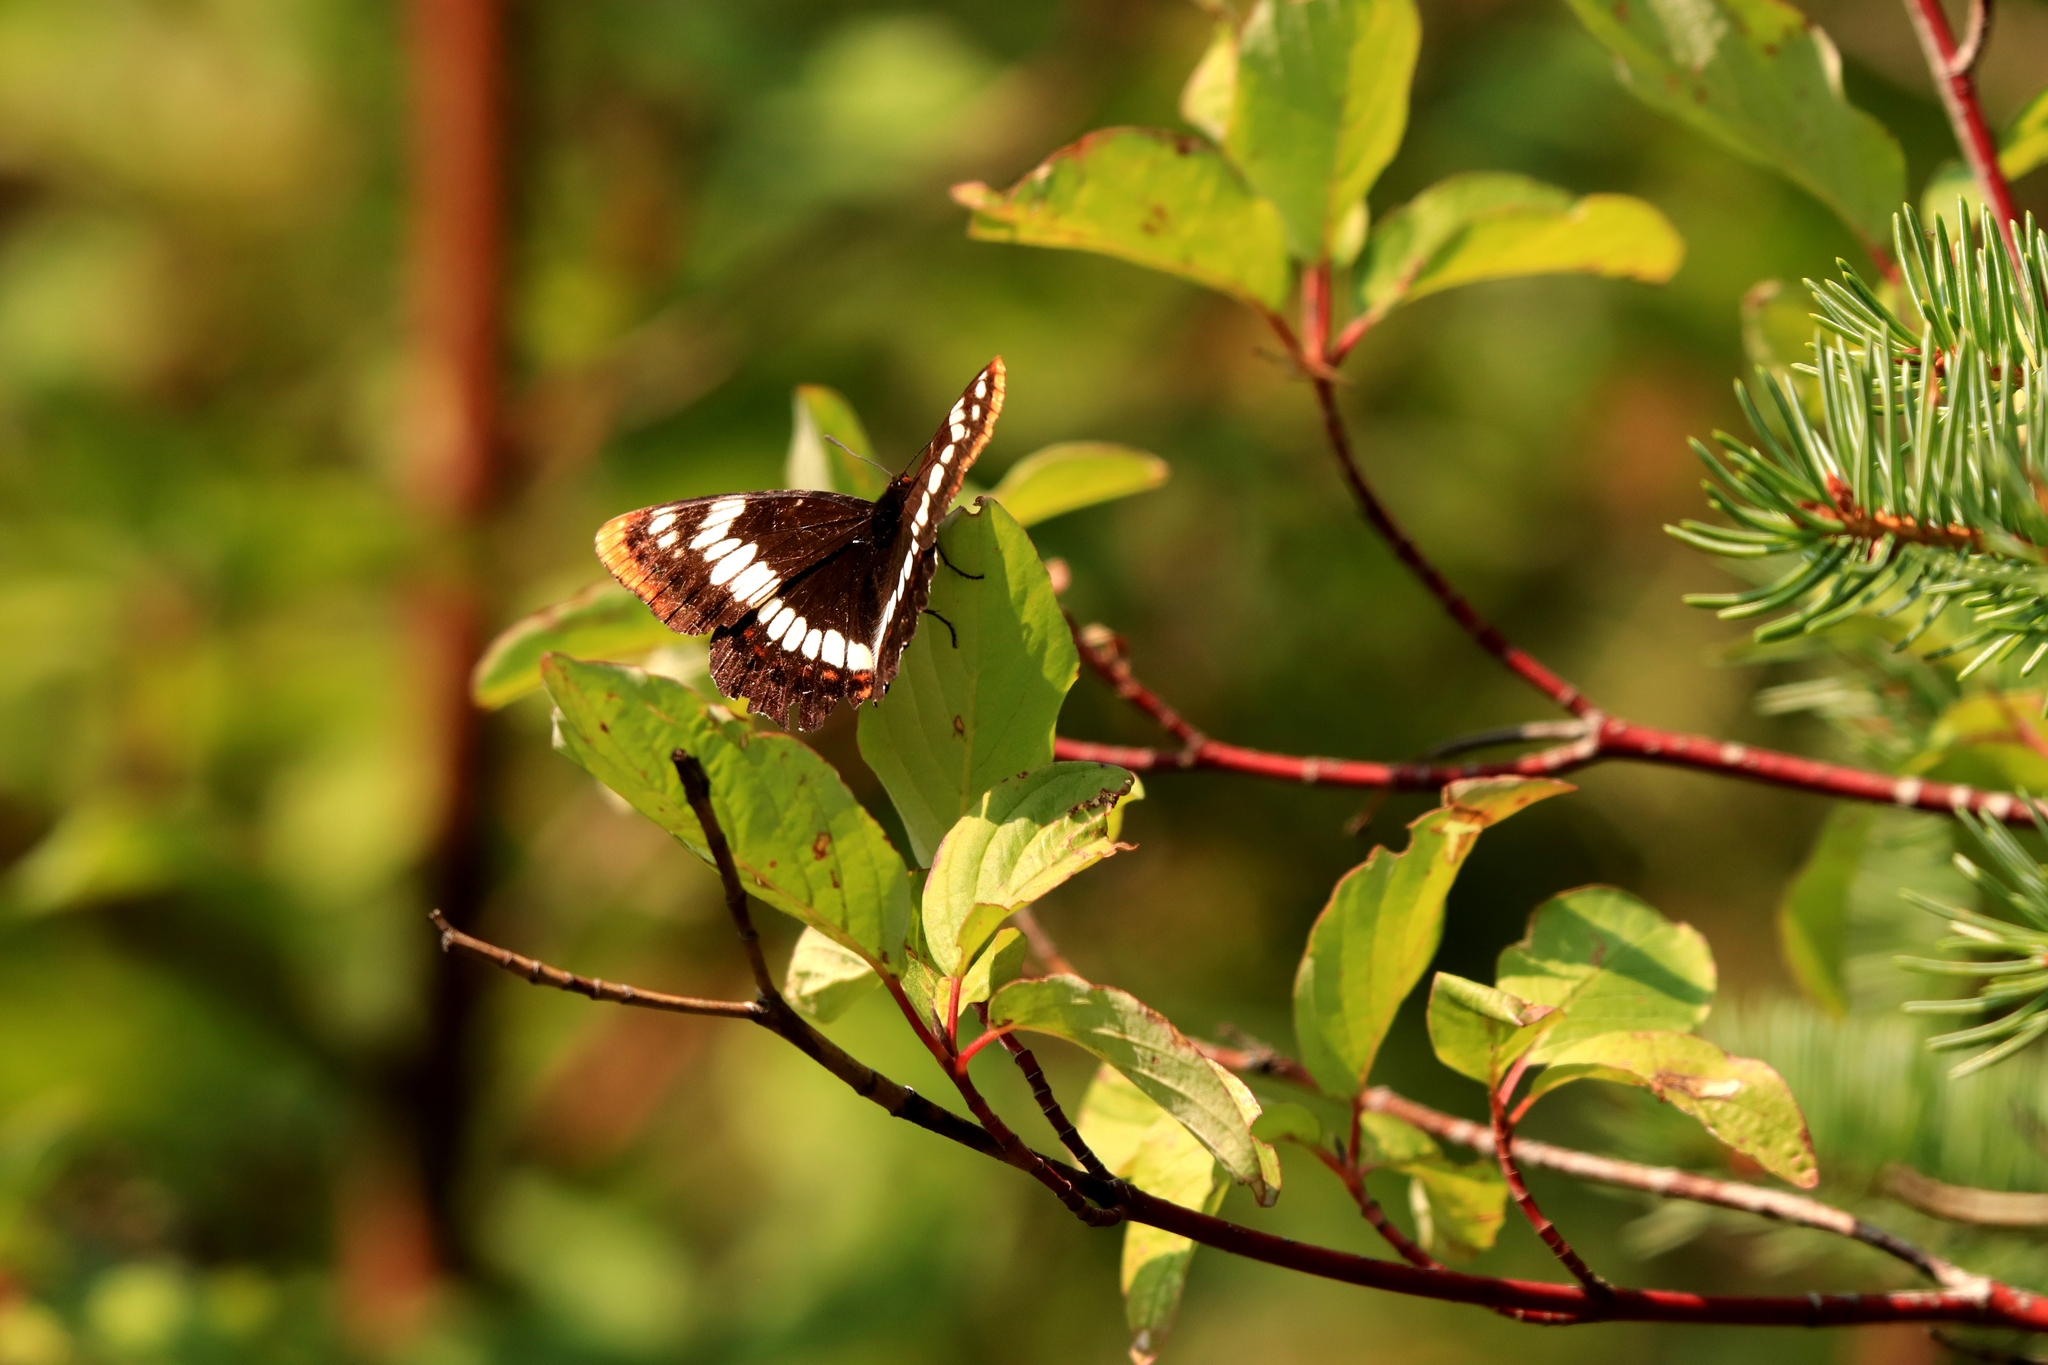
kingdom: Animalia
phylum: Arthropoda
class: Insecta
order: Lepidoptera
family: Nymphalidae
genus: Limenitis
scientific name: Limenitis lorquini
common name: Lorquin's admiral
